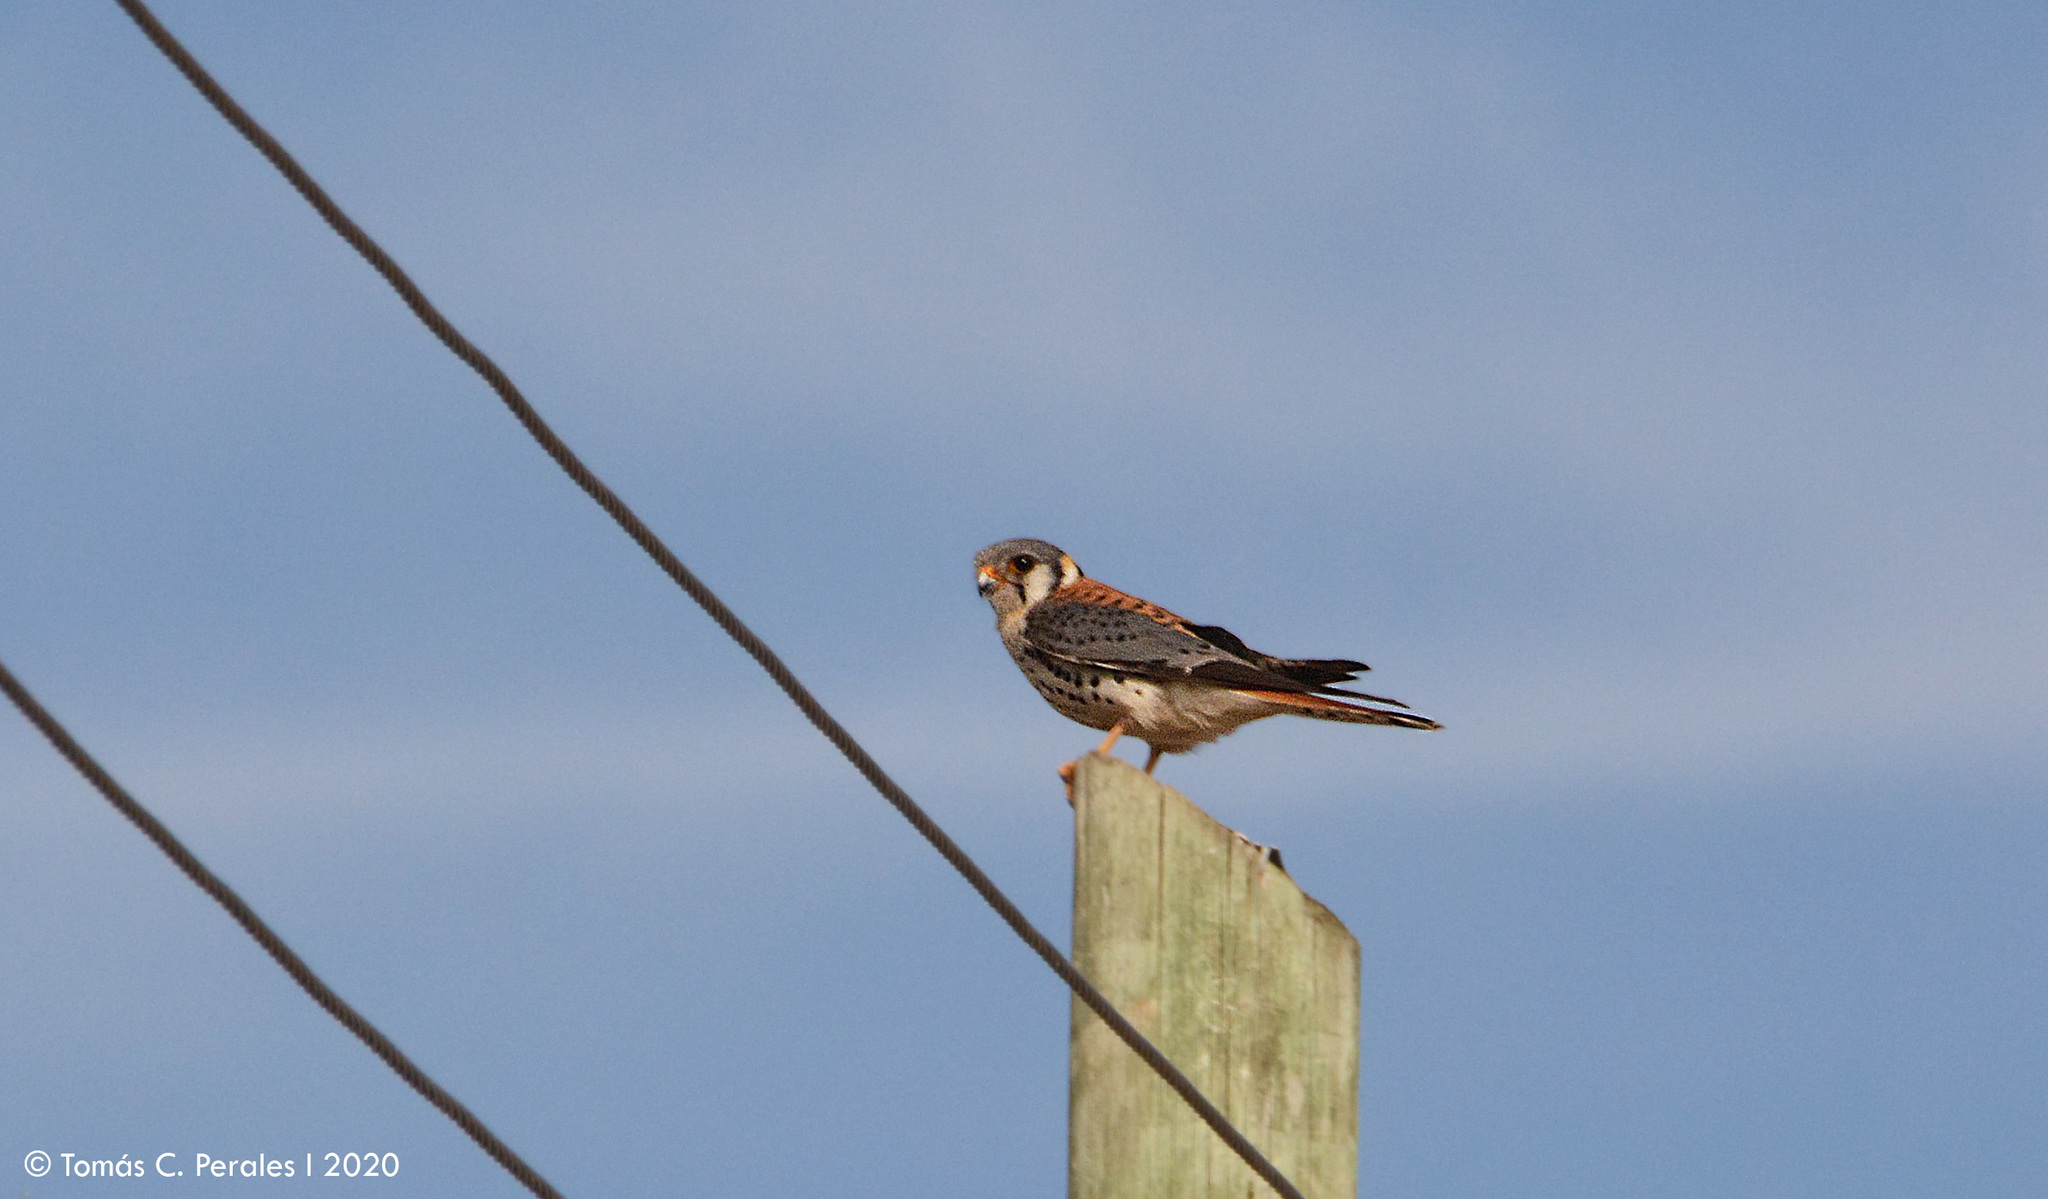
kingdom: Animalia
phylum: Chordata
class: Aves
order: Falconiformes
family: Falconidae
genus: Falco
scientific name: Falco sparverius
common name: American kestrel
